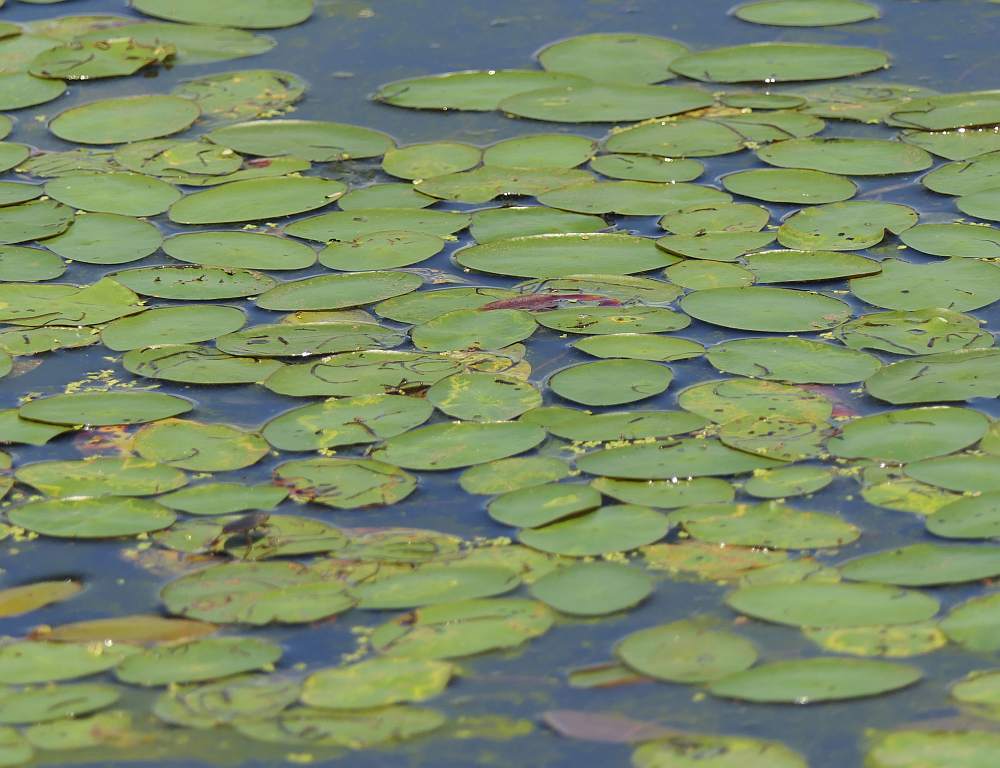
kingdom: Plantae
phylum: Tracheophyta
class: Magnoliopsida
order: Nymphaeales
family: Cabombaceae
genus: Brasenia
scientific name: Brasenia schreberi
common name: Water-shield
